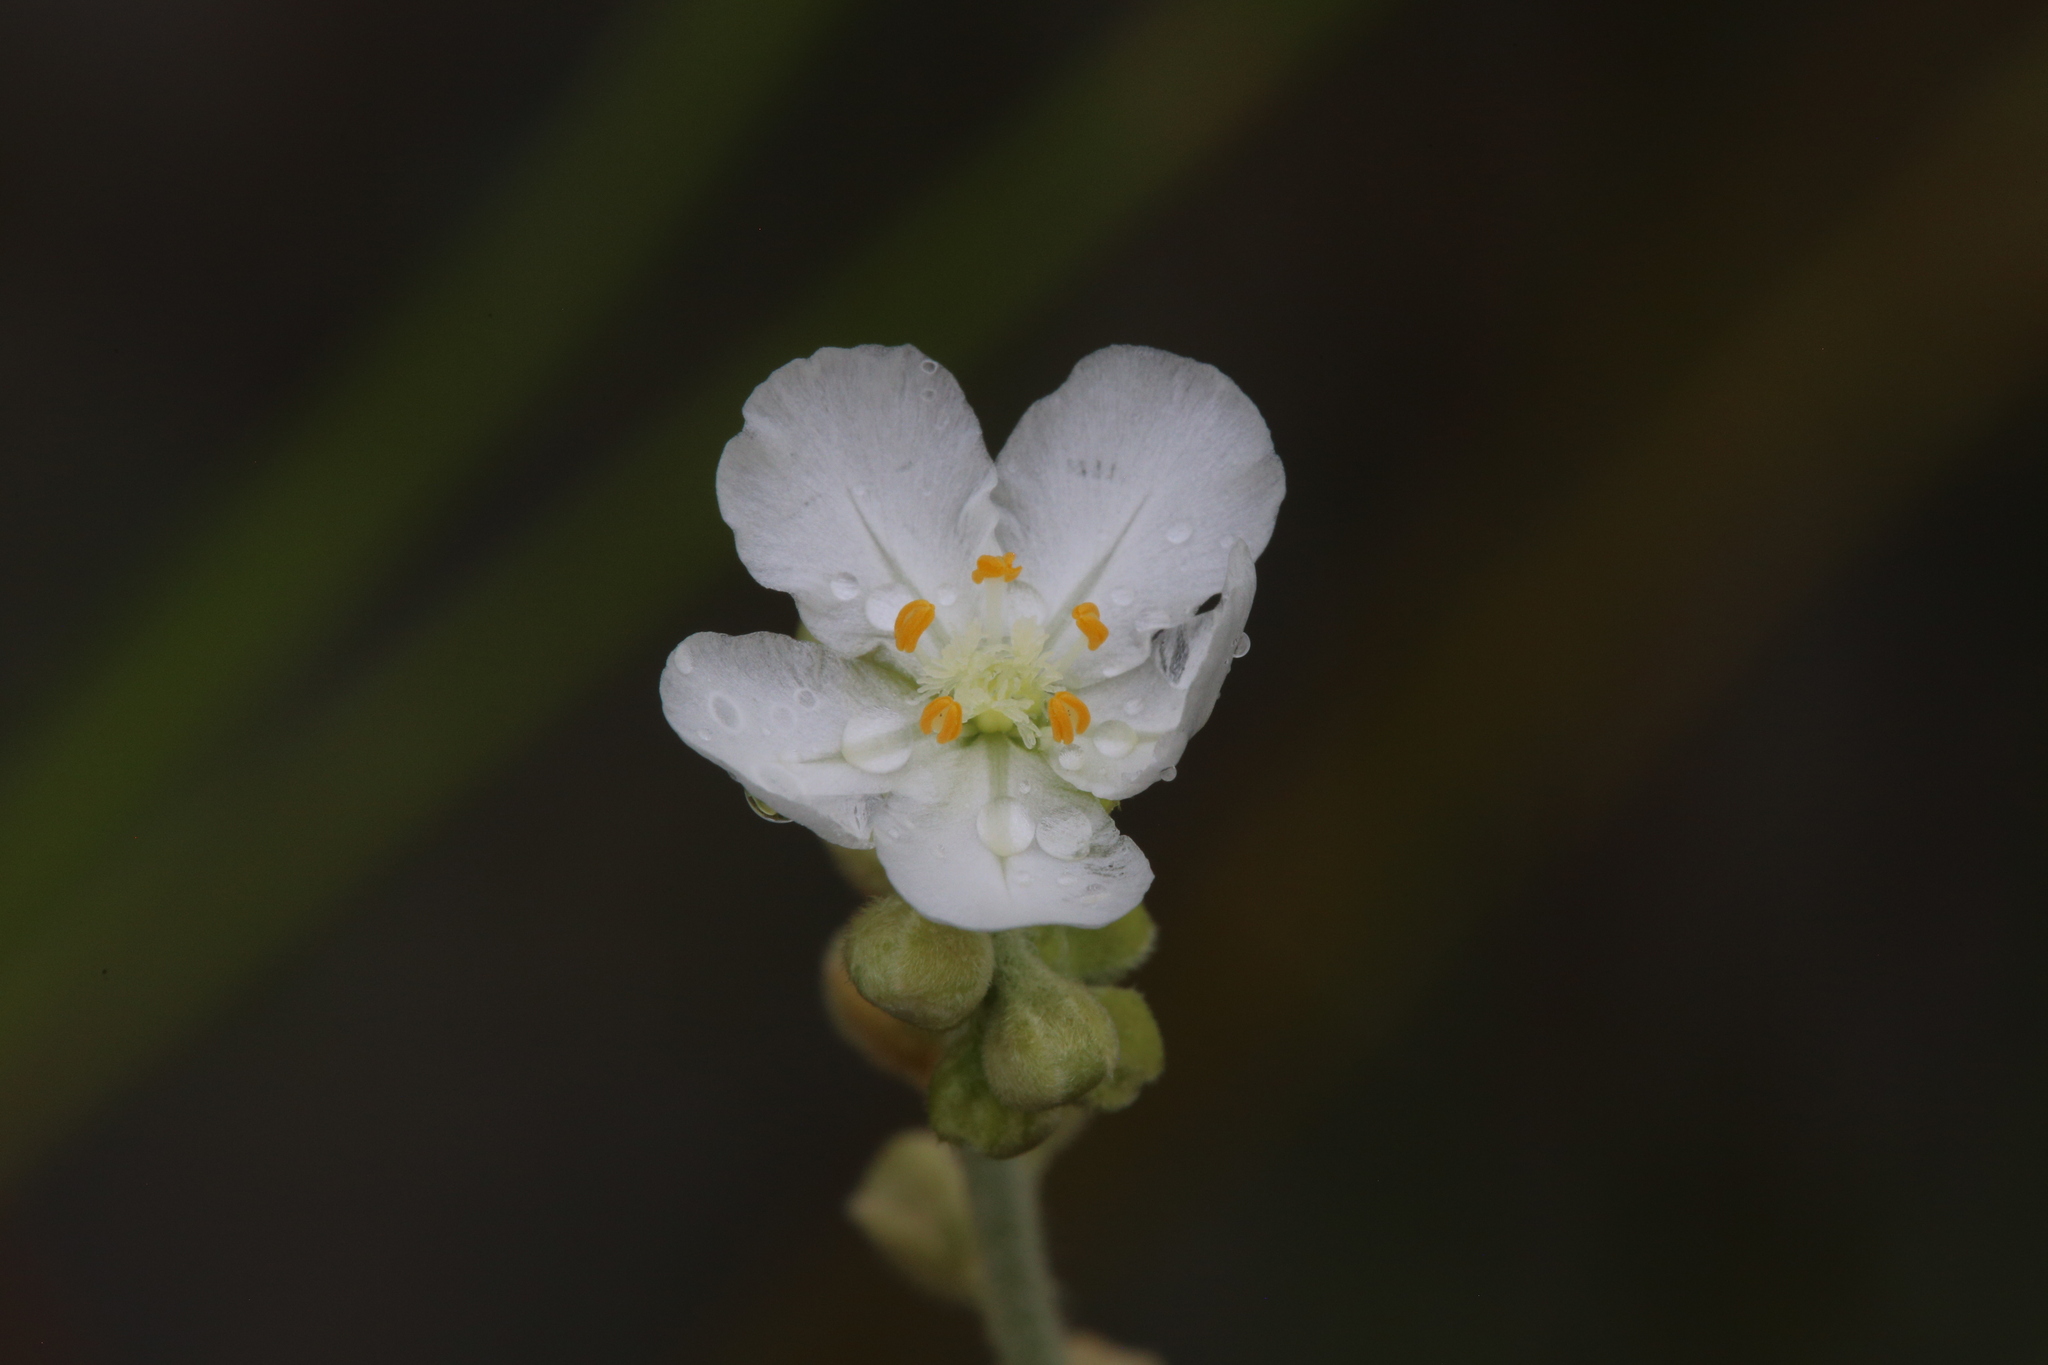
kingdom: Plantae
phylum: Tracheophyta
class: Magnoliopsida
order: Caryophyllales
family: Droseraceae
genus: Drosera
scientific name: Drosera fulva
